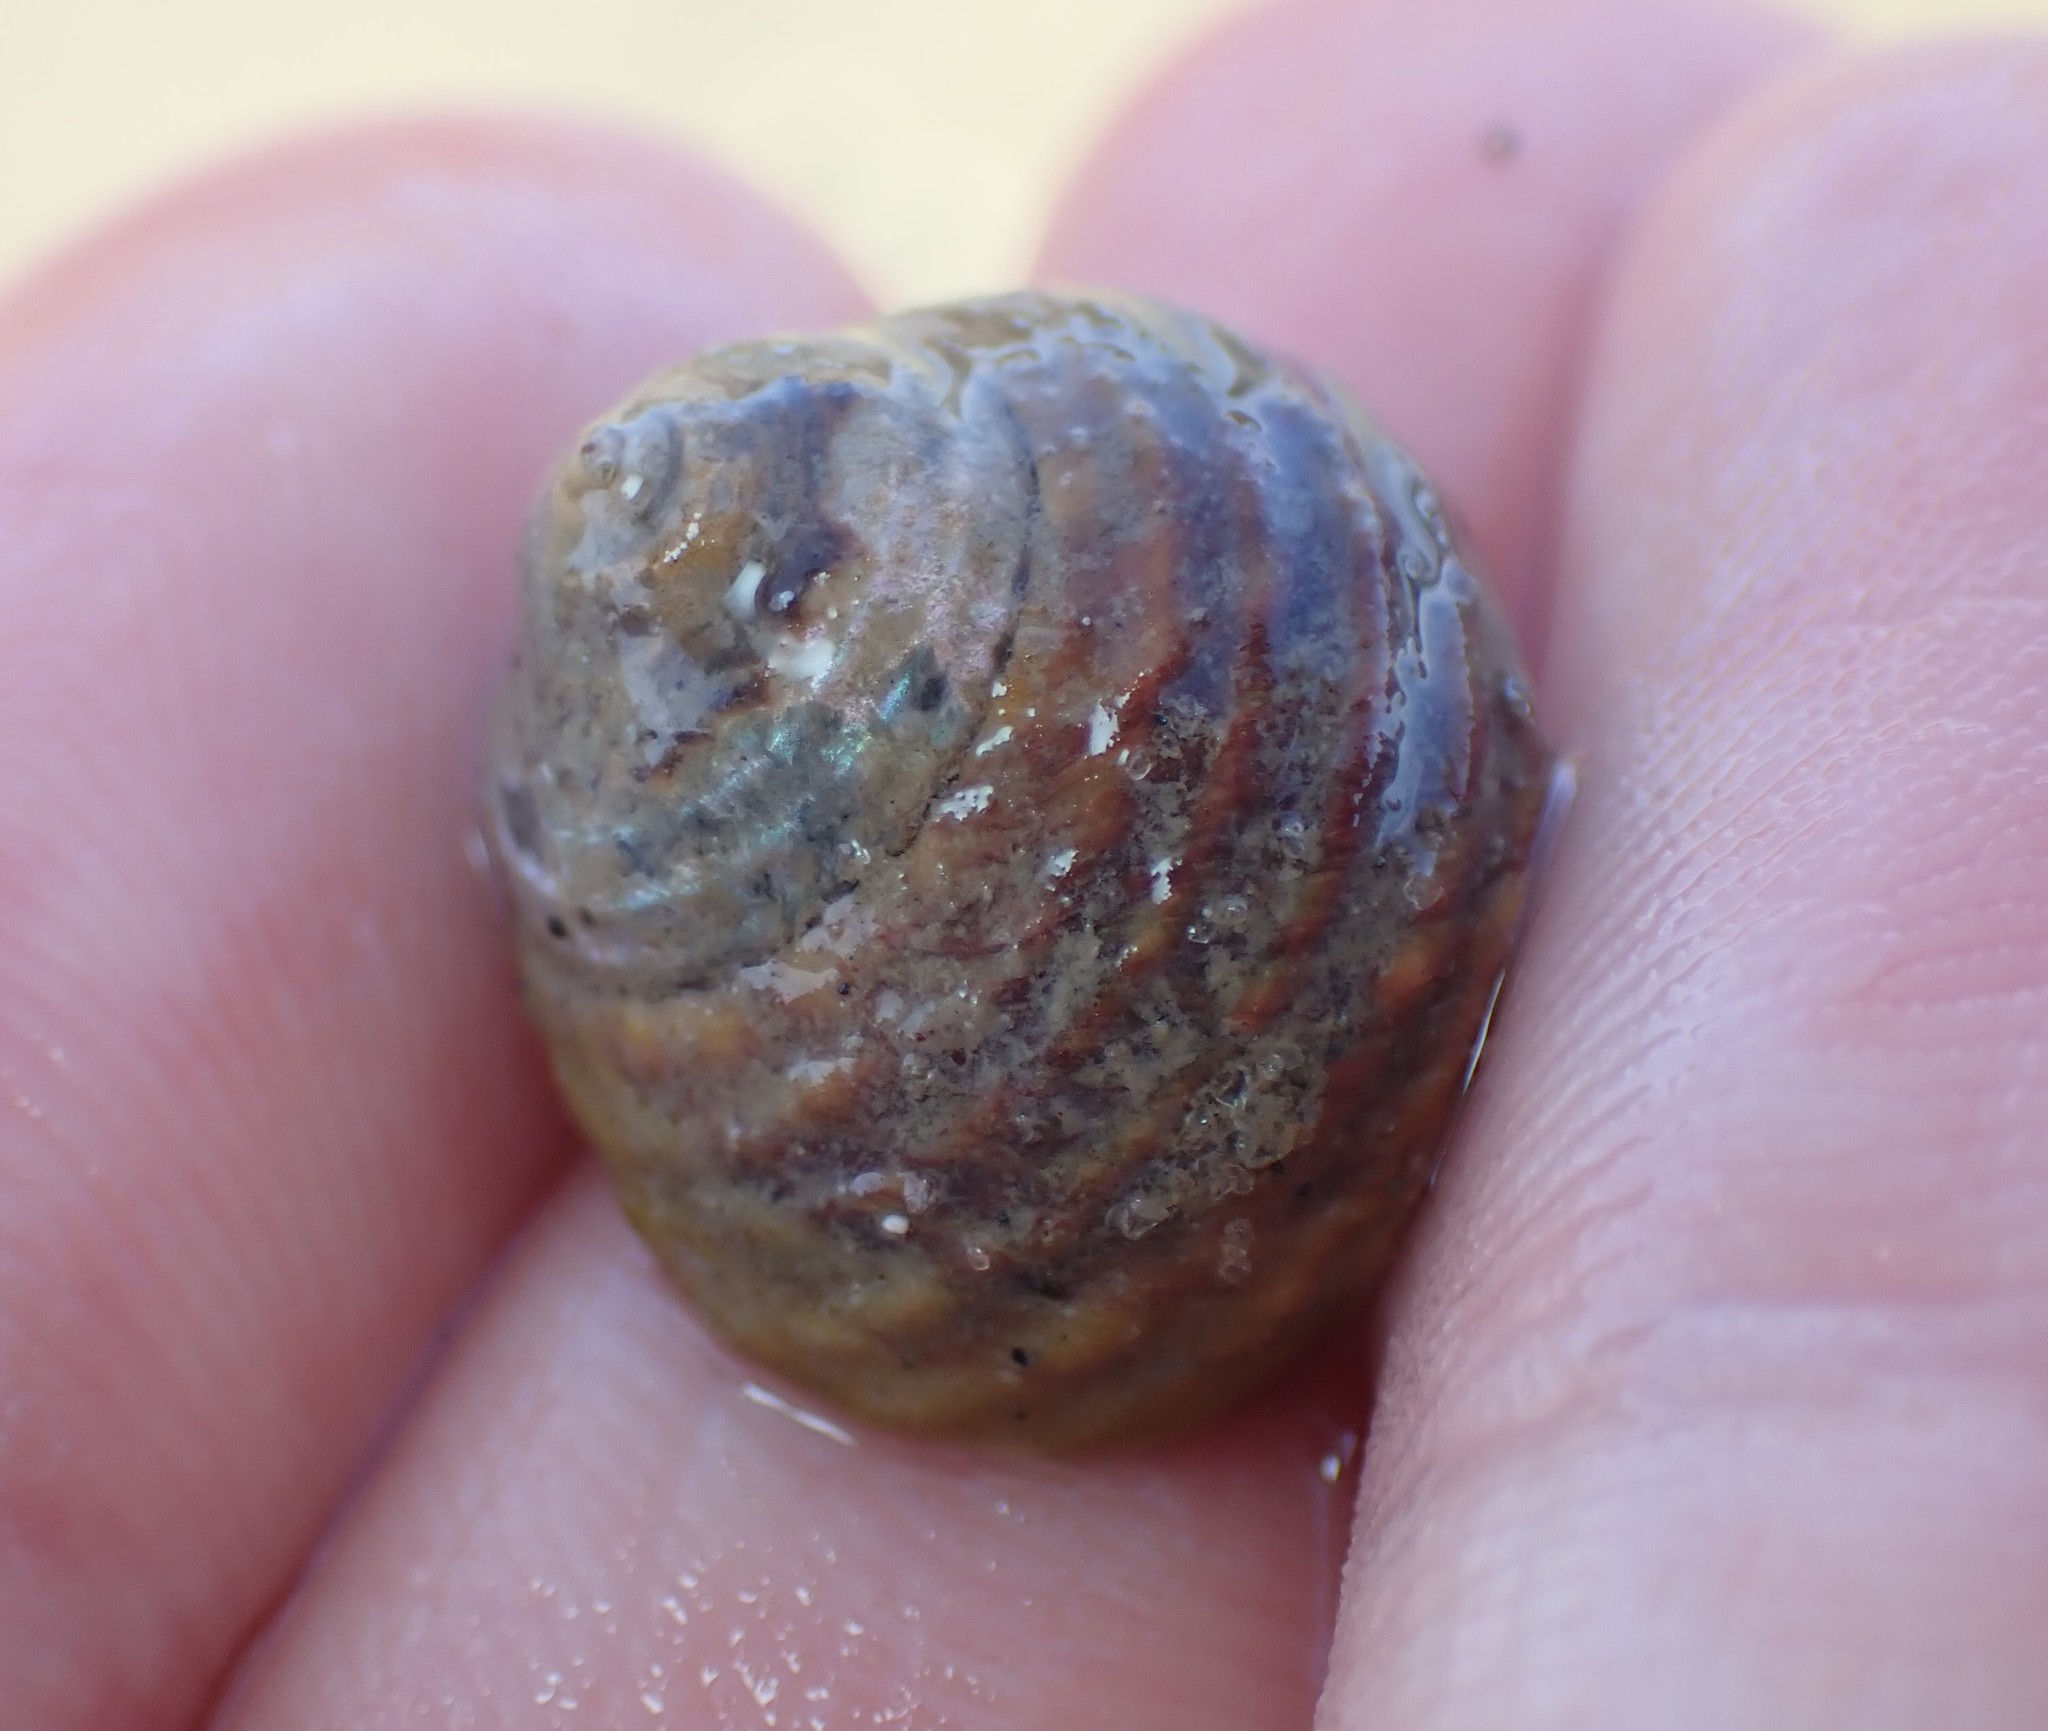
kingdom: Animalia
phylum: Mollusca
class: Gastropoda
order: Trochida
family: Trochidae
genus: Diloma
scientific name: Diloma subrostratum
